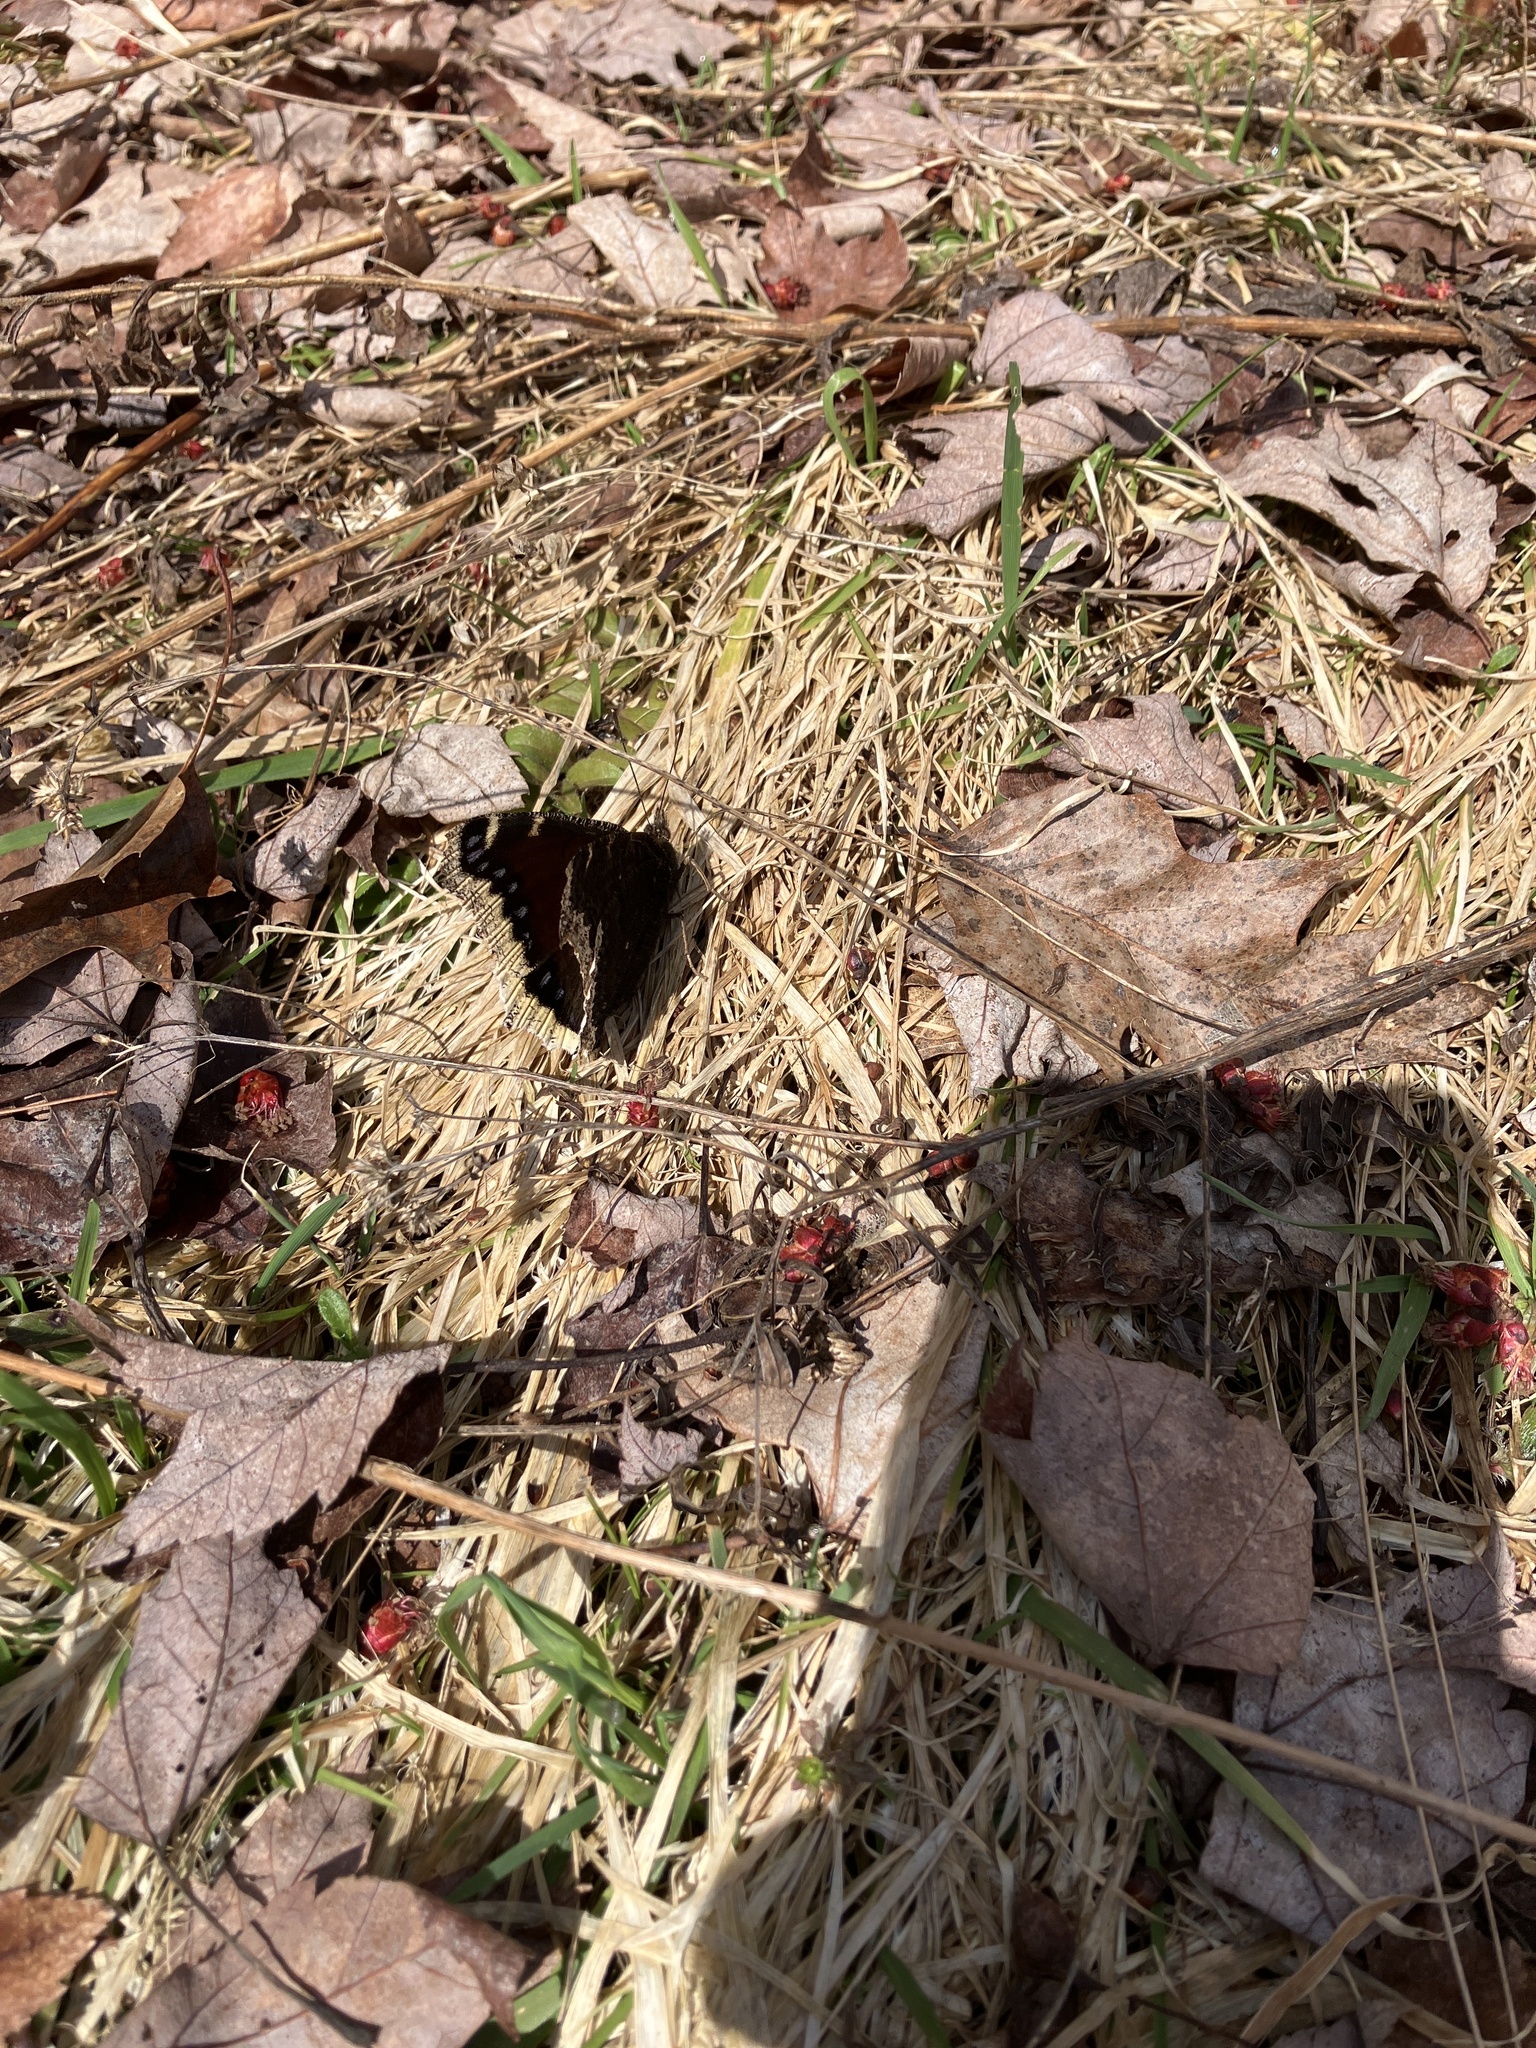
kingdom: Animalia
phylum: Arthropoda
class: Insecta
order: Lepidoptera
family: Nymphalidae
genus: Nymphalis
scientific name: Nymphalis antiopa
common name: Camberwell beauty
